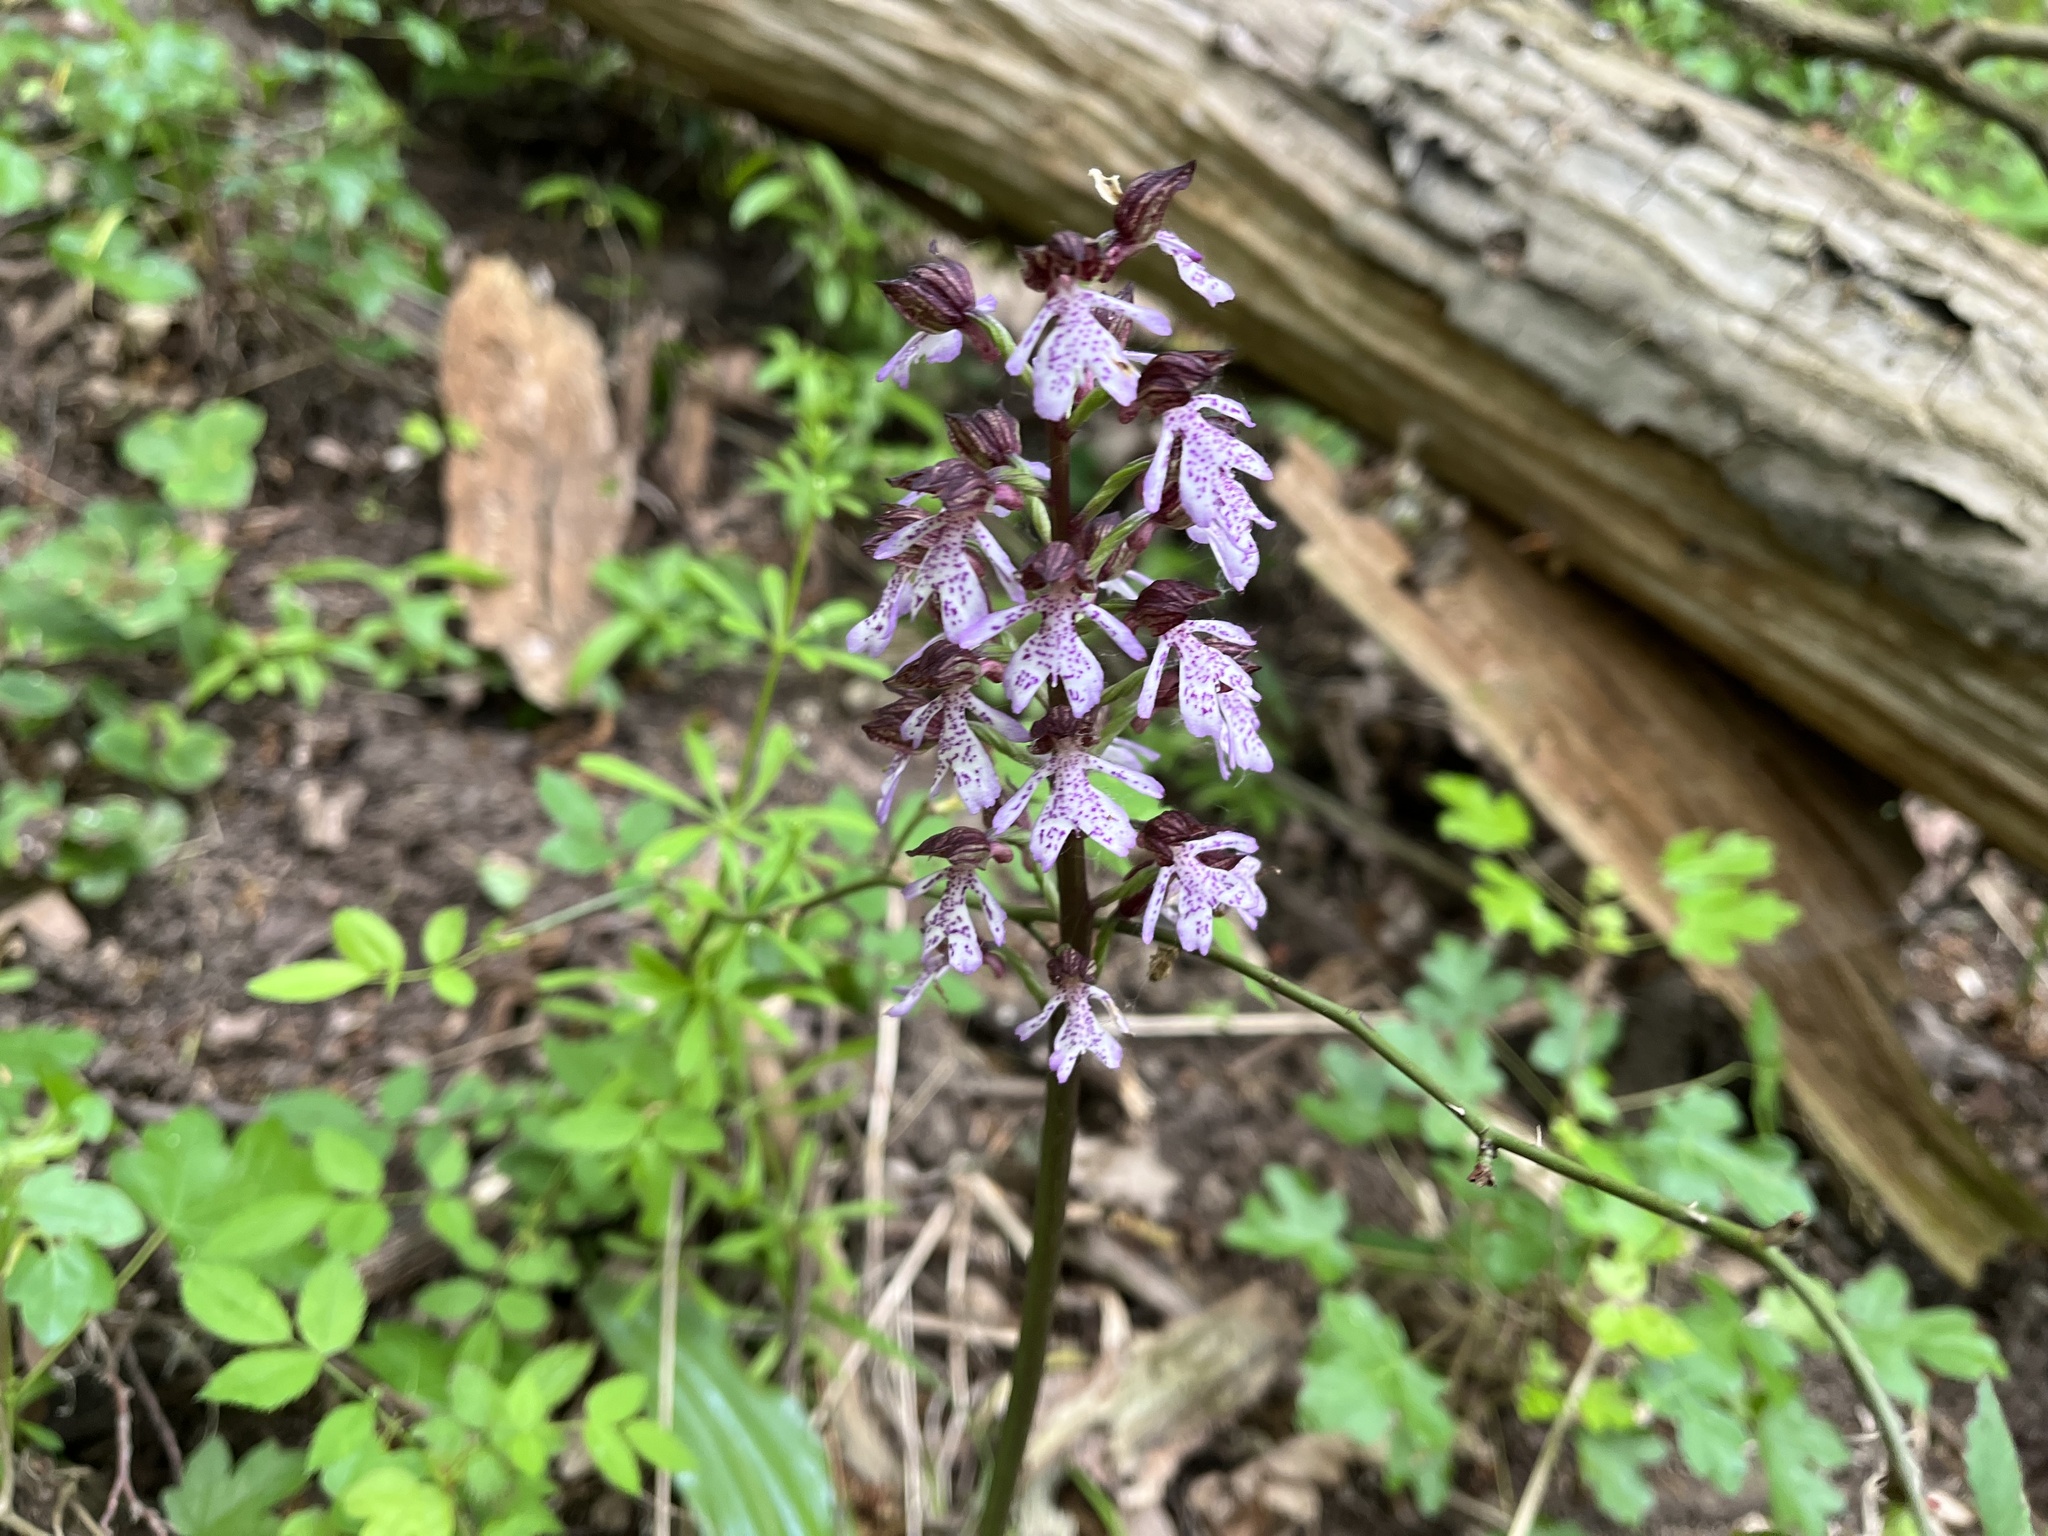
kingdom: Plantae
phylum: Tracheophyta
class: Liliopsida
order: Asparagales
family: Orchidaceae
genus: Orchis
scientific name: Orchis purpurea
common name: Lady orchid
